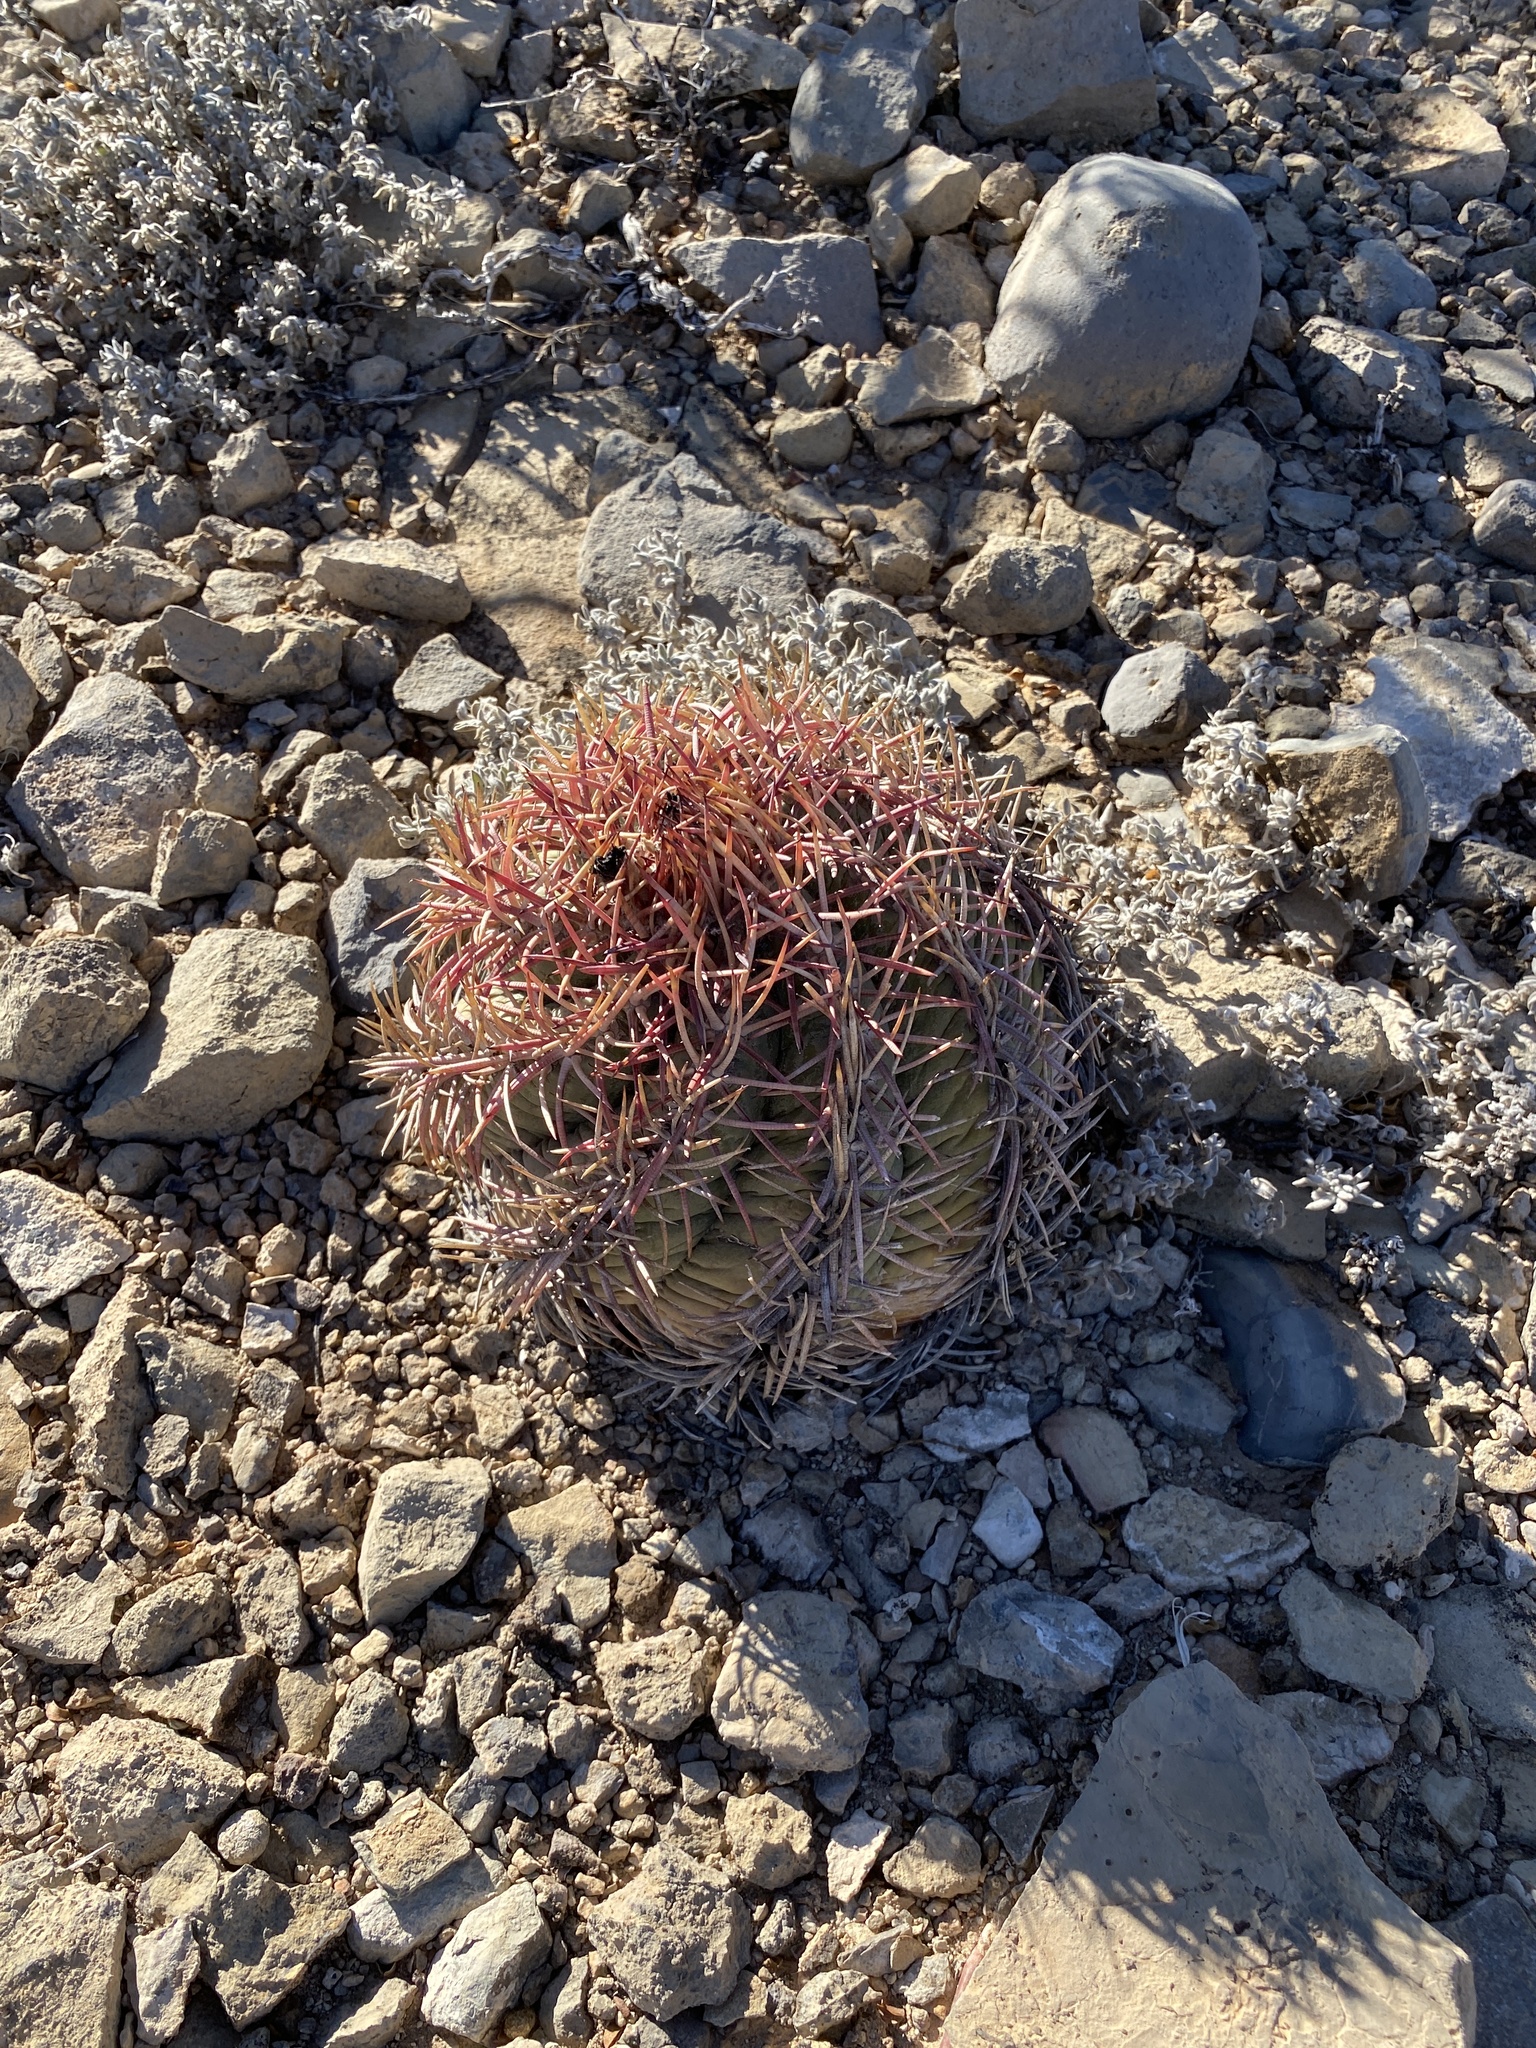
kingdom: Plantae
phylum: Tracheophyta
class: Magnoliopsida
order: Caryophyllales
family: Cactaceae
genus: Echinocactus
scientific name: Echinocactus horizonthalonius
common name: Devilshead
